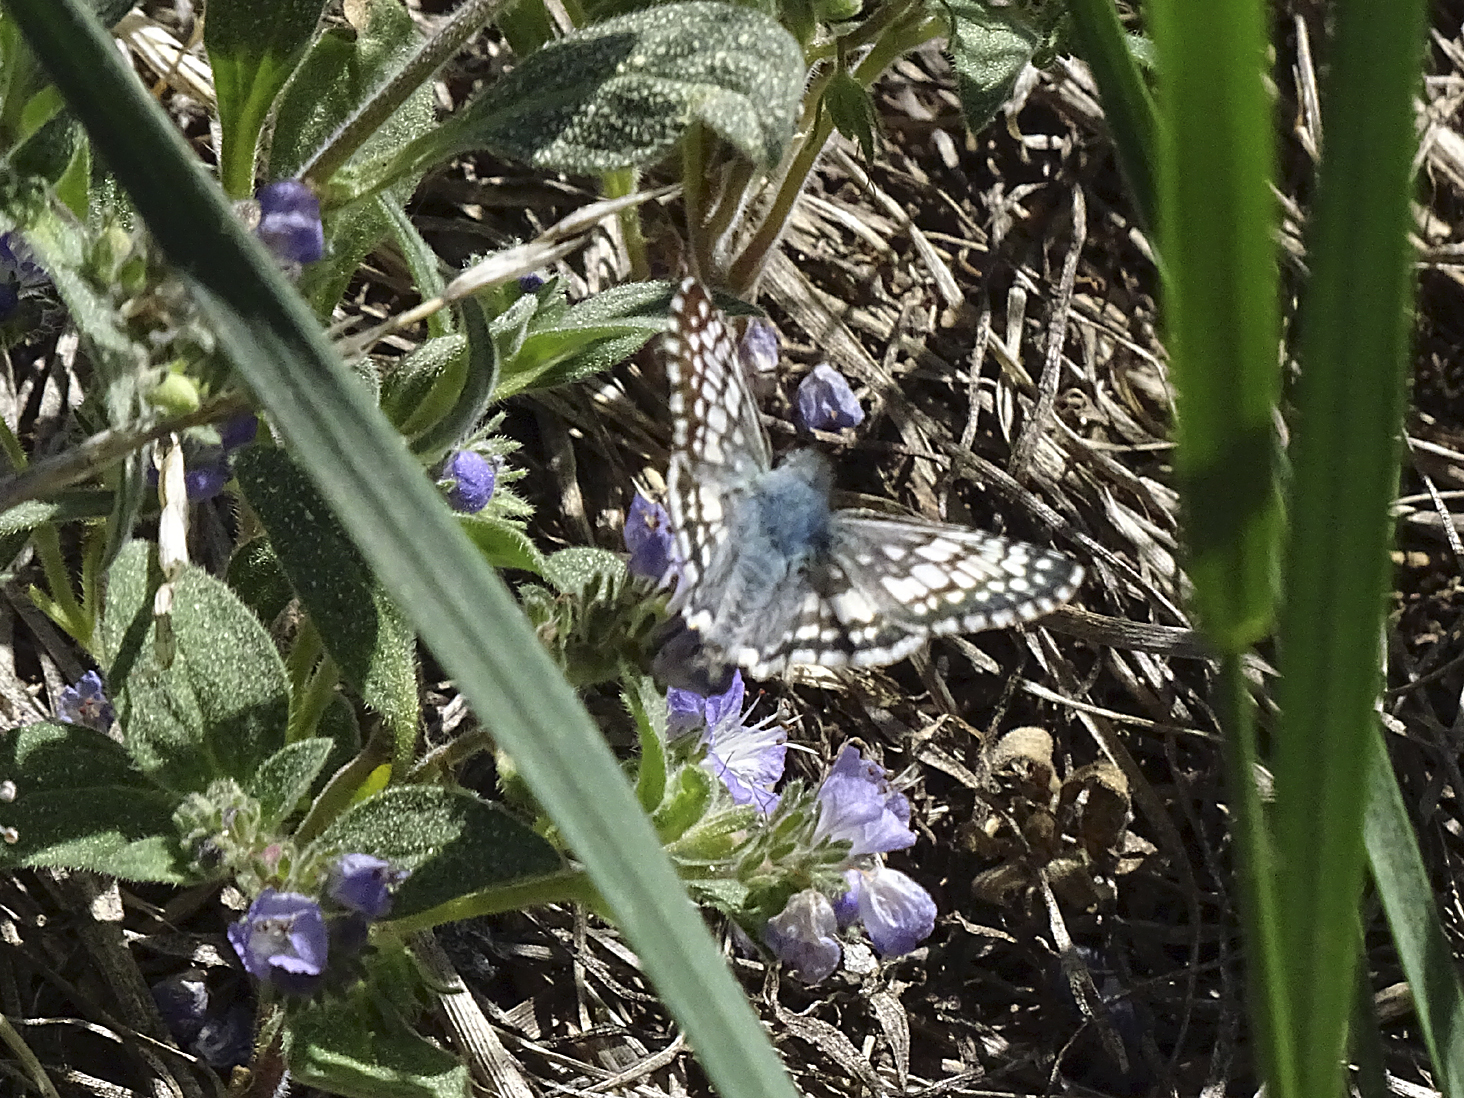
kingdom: Animalia
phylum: Arthropoda
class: Insecta
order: Lepidoptera
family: Hesperiidae
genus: Burnsius
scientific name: Burnsius communis
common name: Common checkered-skipper
